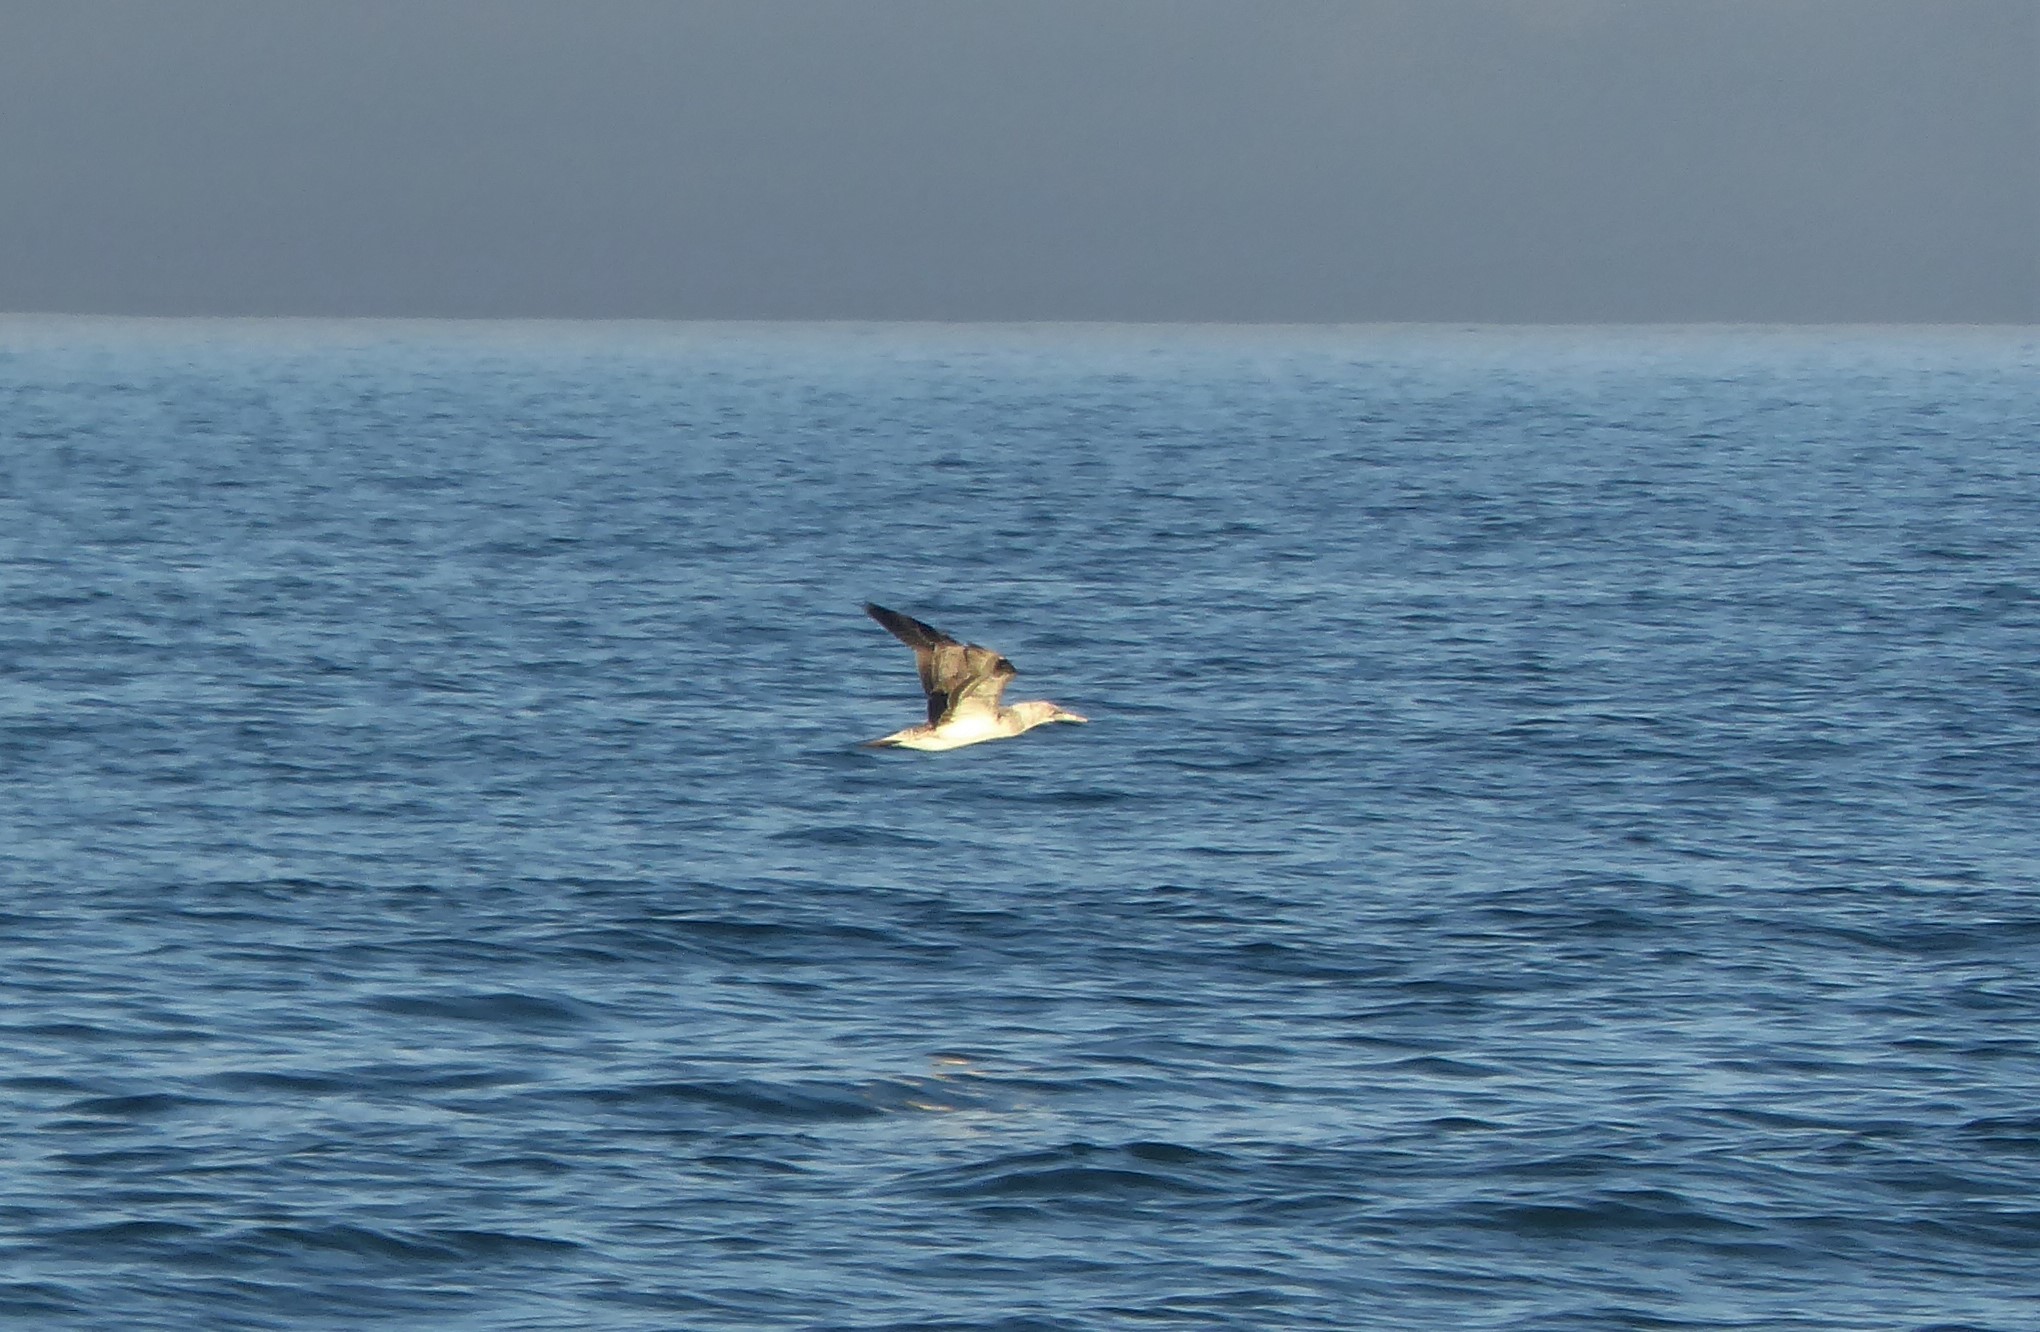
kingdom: Animalia
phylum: Chordata
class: Aves
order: Suliformes
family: Sulidae
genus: Morus
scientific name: Morus serrator
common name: Australasian gannet
